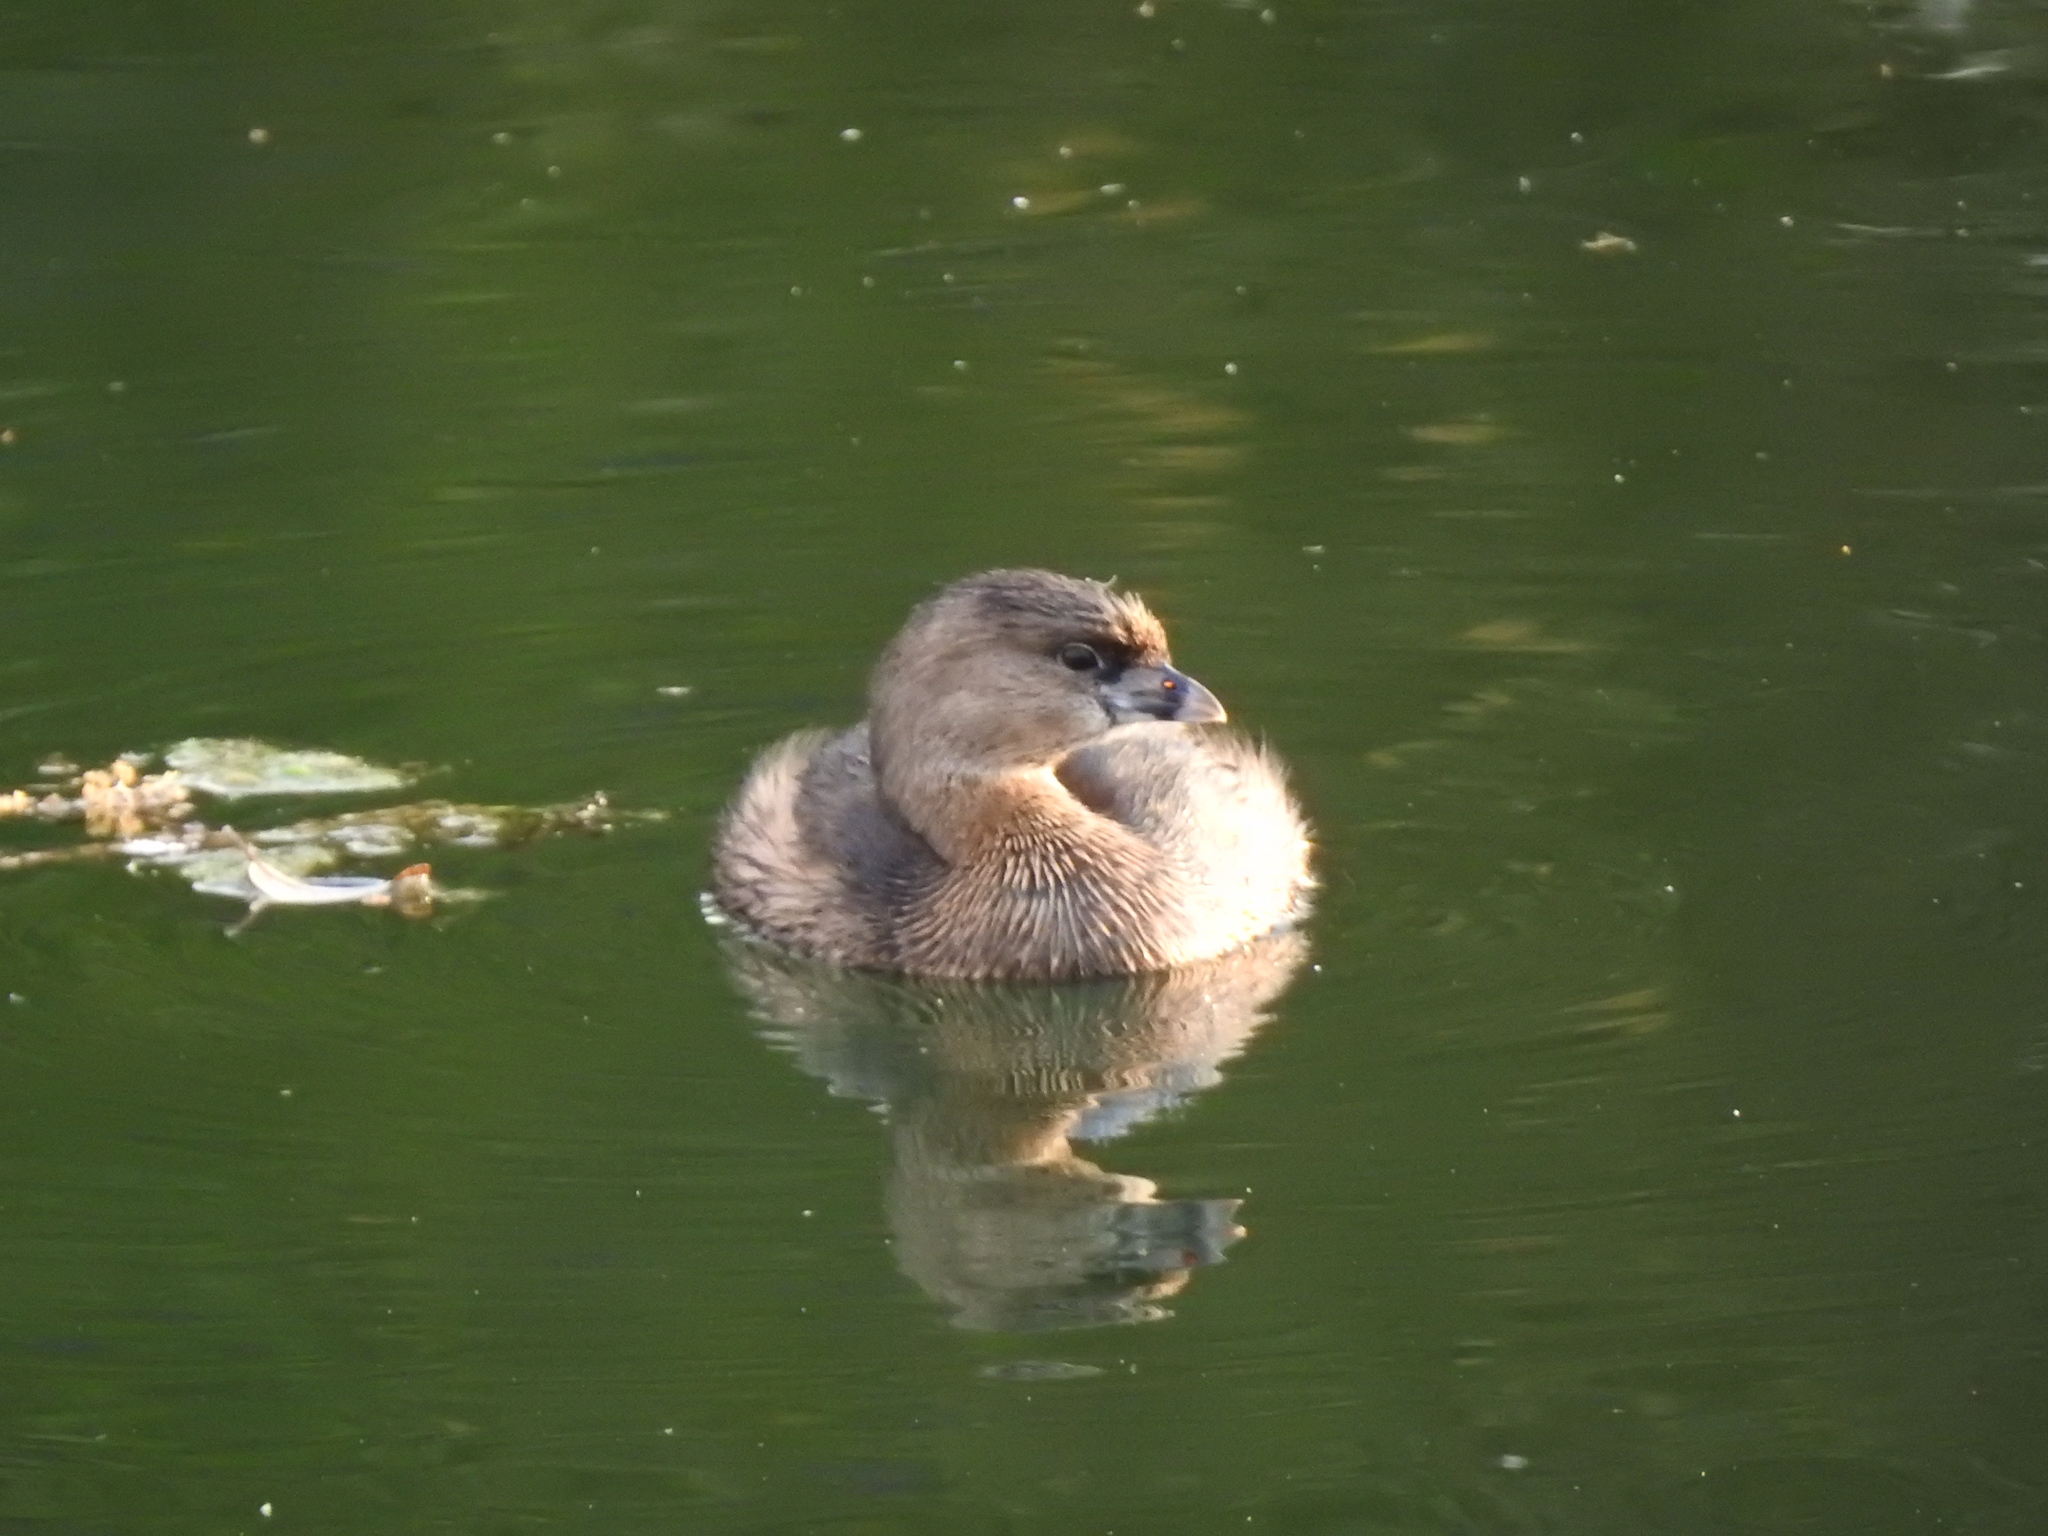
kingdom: Animalia
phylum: Chordata
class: Aves
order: Podicipediformes
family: Podicipedidae
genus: Podilymbus
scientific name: Podilymbus podiceps
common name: Pied-billed grebe
